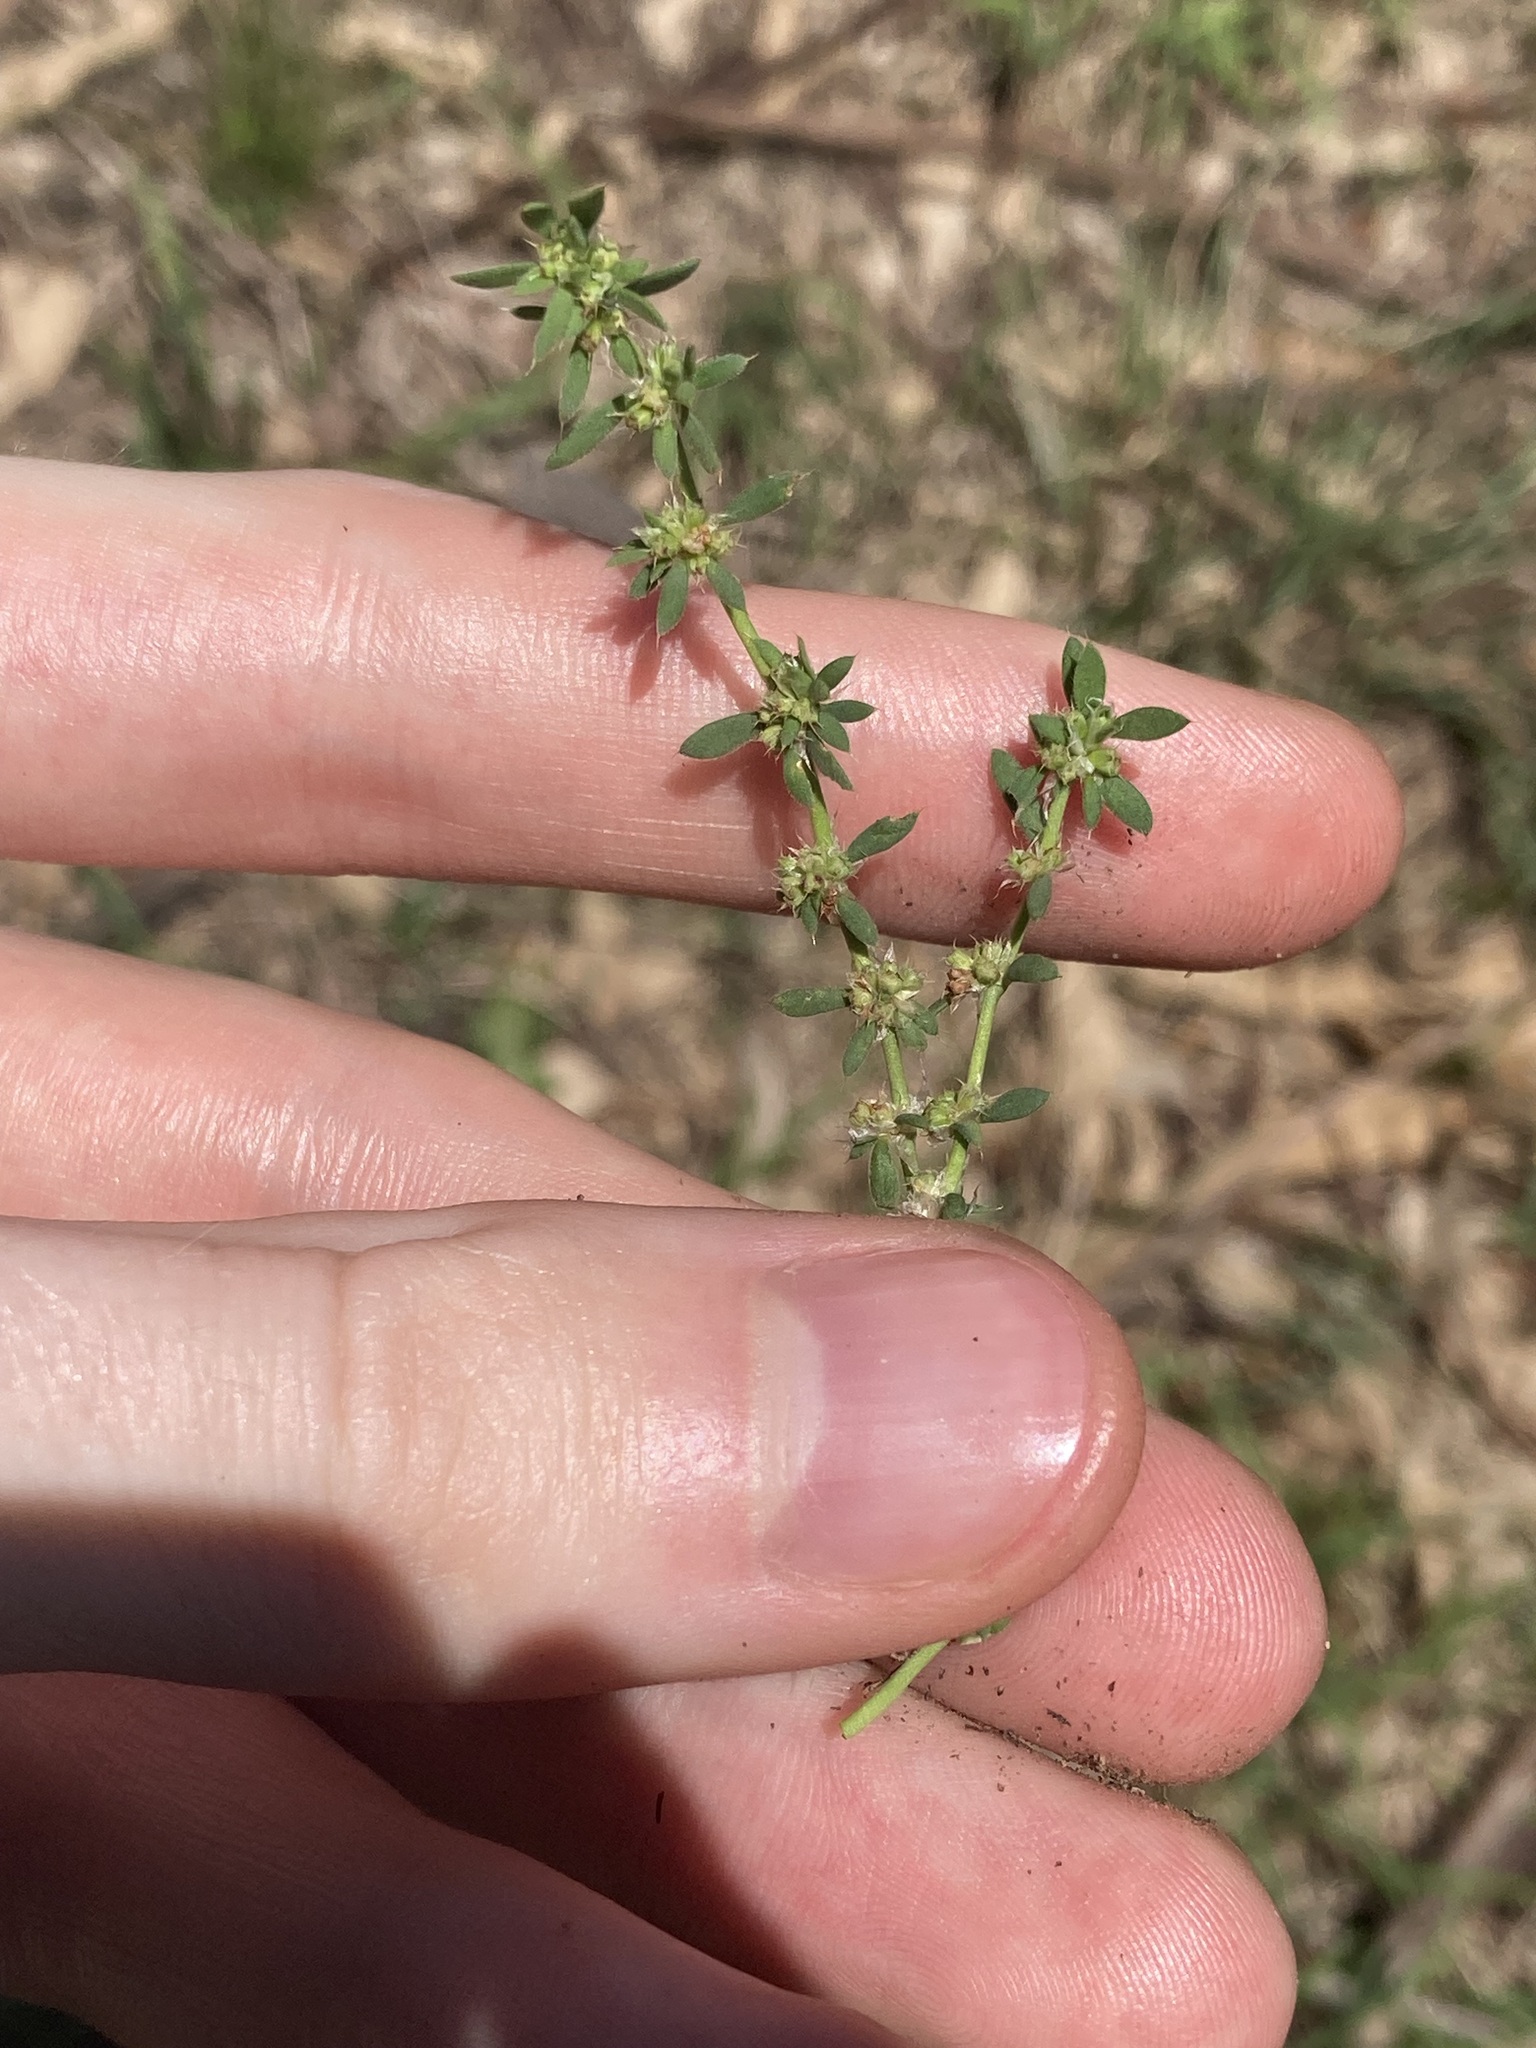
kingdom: Plantae
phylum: Tracheophyta
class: Magnoliopsida
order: Caryophyllales
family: Caryophyllaceae
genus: Paronychia
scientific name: Paronychia brasiliana
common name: Brazilian whitlow
